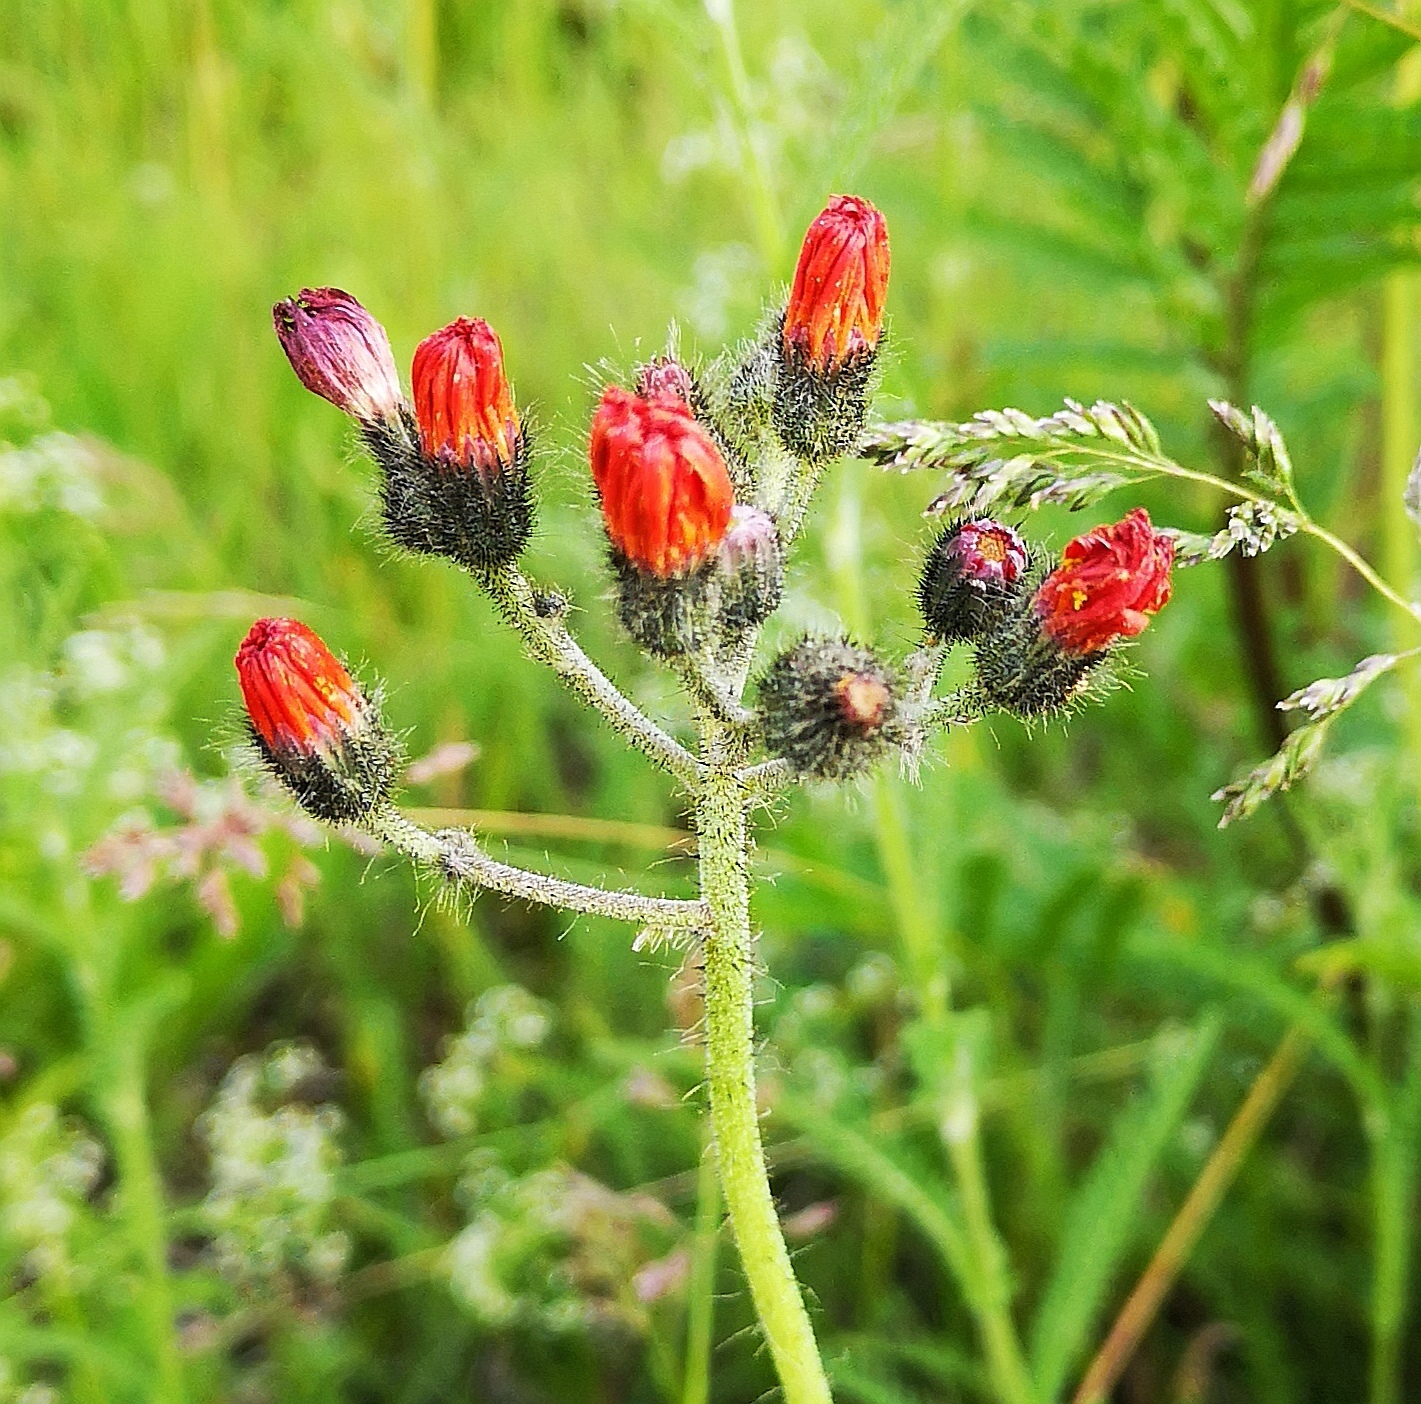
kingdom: Plantae
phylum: Tracheophyta
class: Magnoliopsida
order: Asterales
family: Asteraceae
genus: Pilosella
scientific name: Pilosella aurantiaca
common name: Fox-and-cubs
